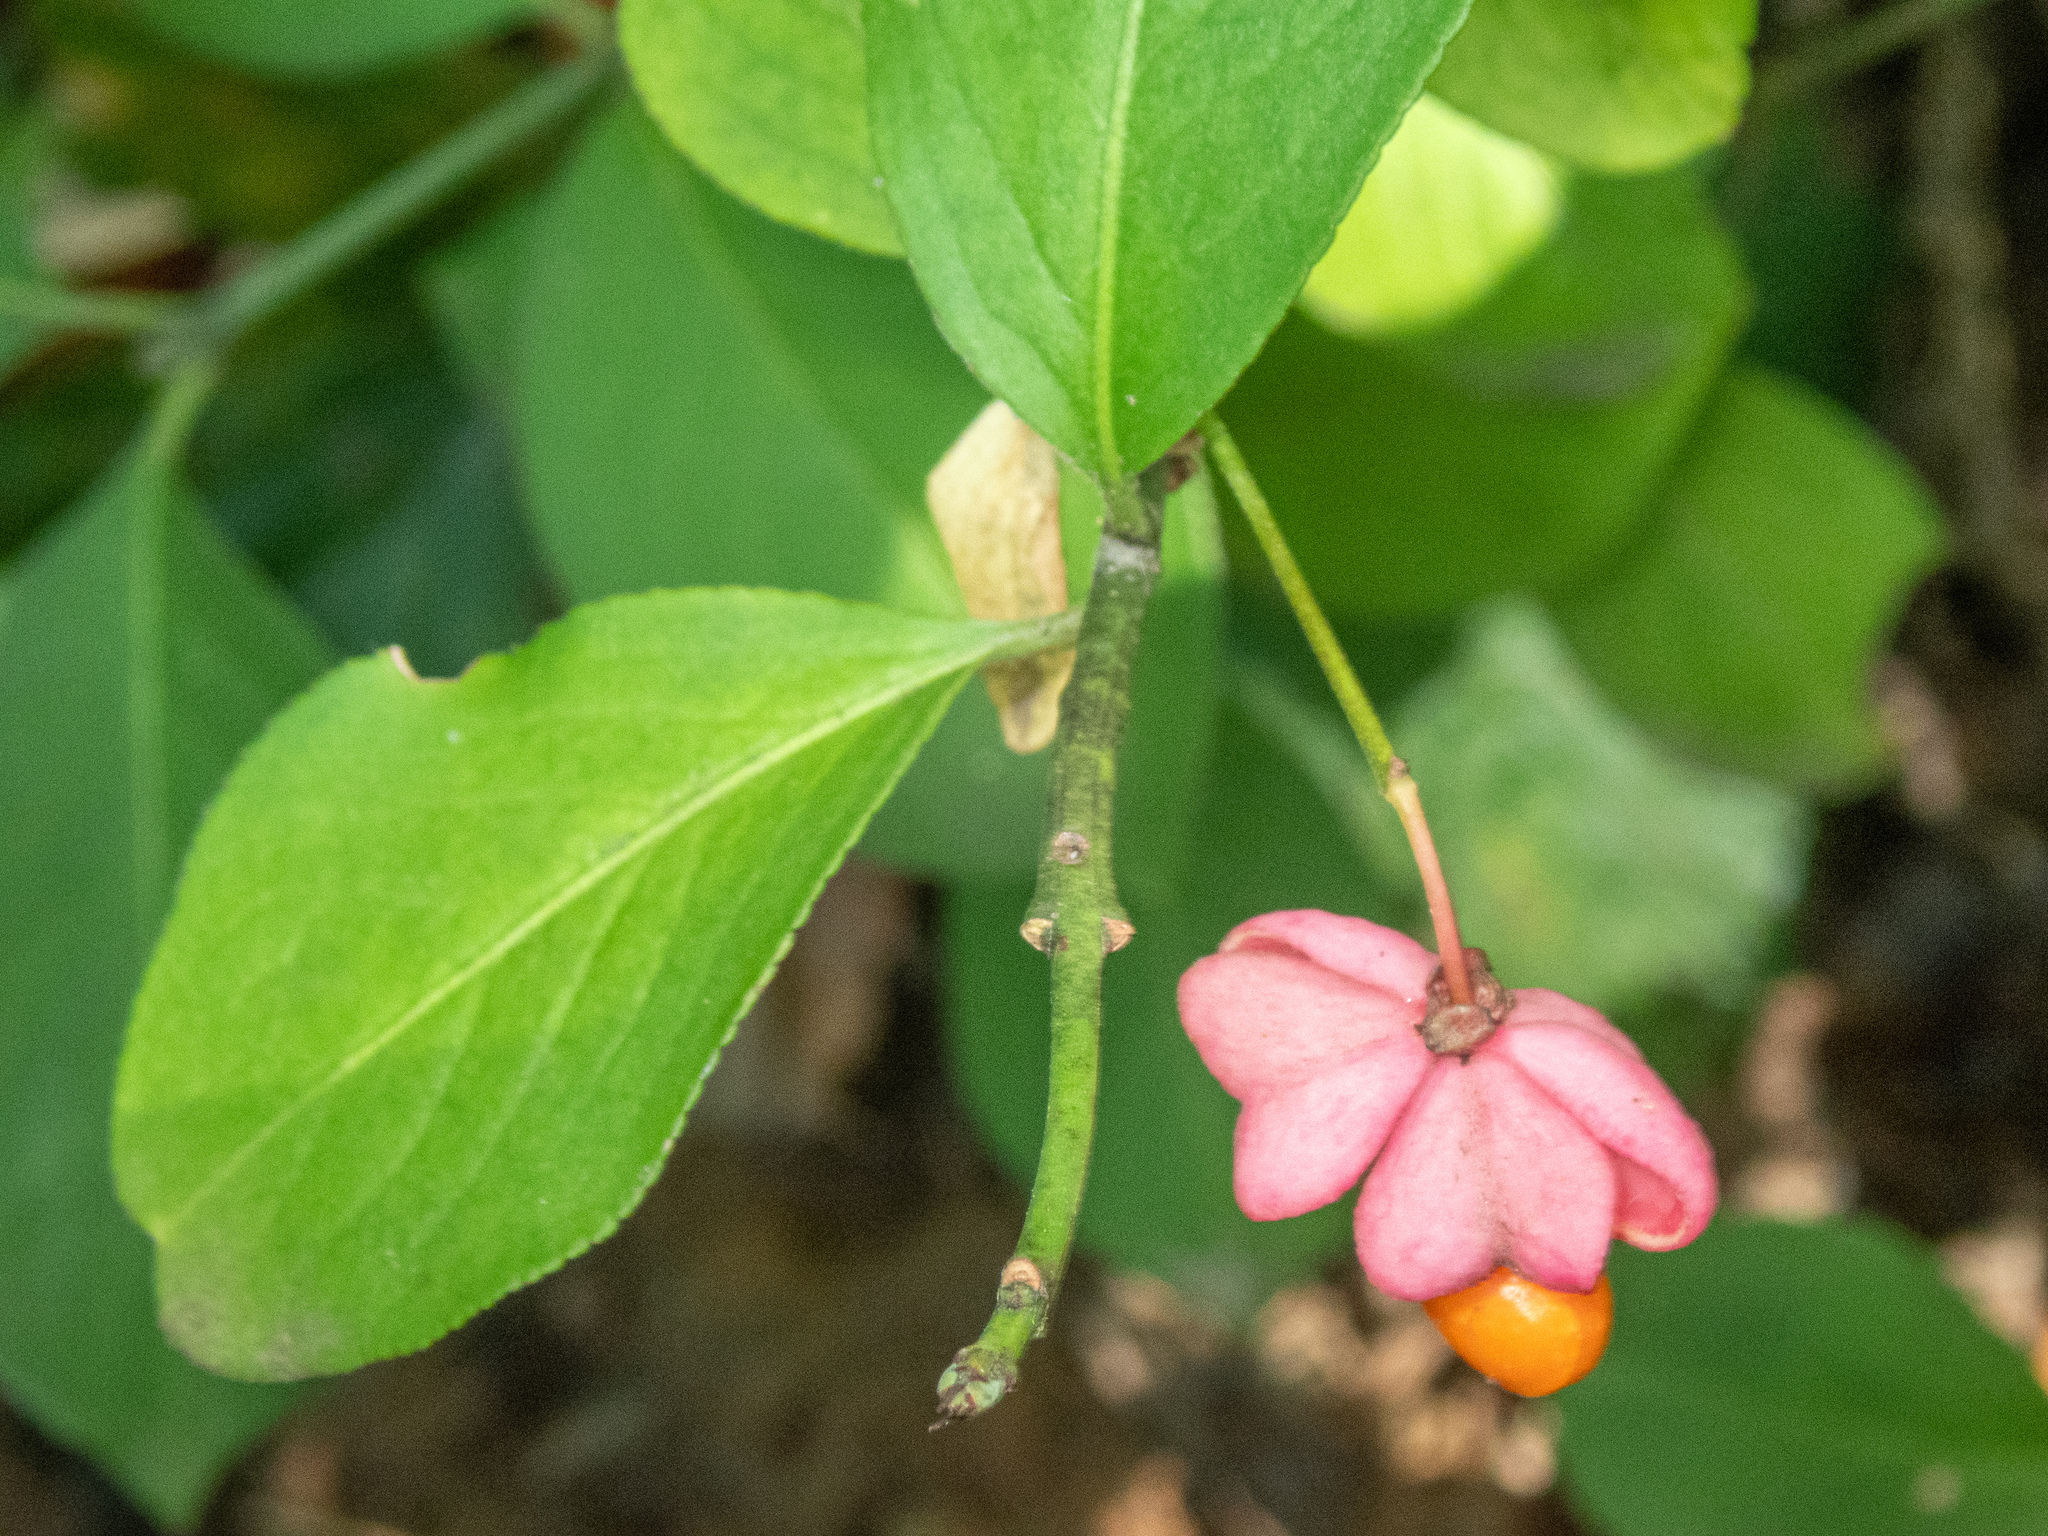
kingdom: Plantae
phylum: Tracheophyta
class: Magnoliopsida
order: Celastrales
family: Celastraceae
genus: Euonymus
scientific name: Euonymus europaeus
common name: Spindle
